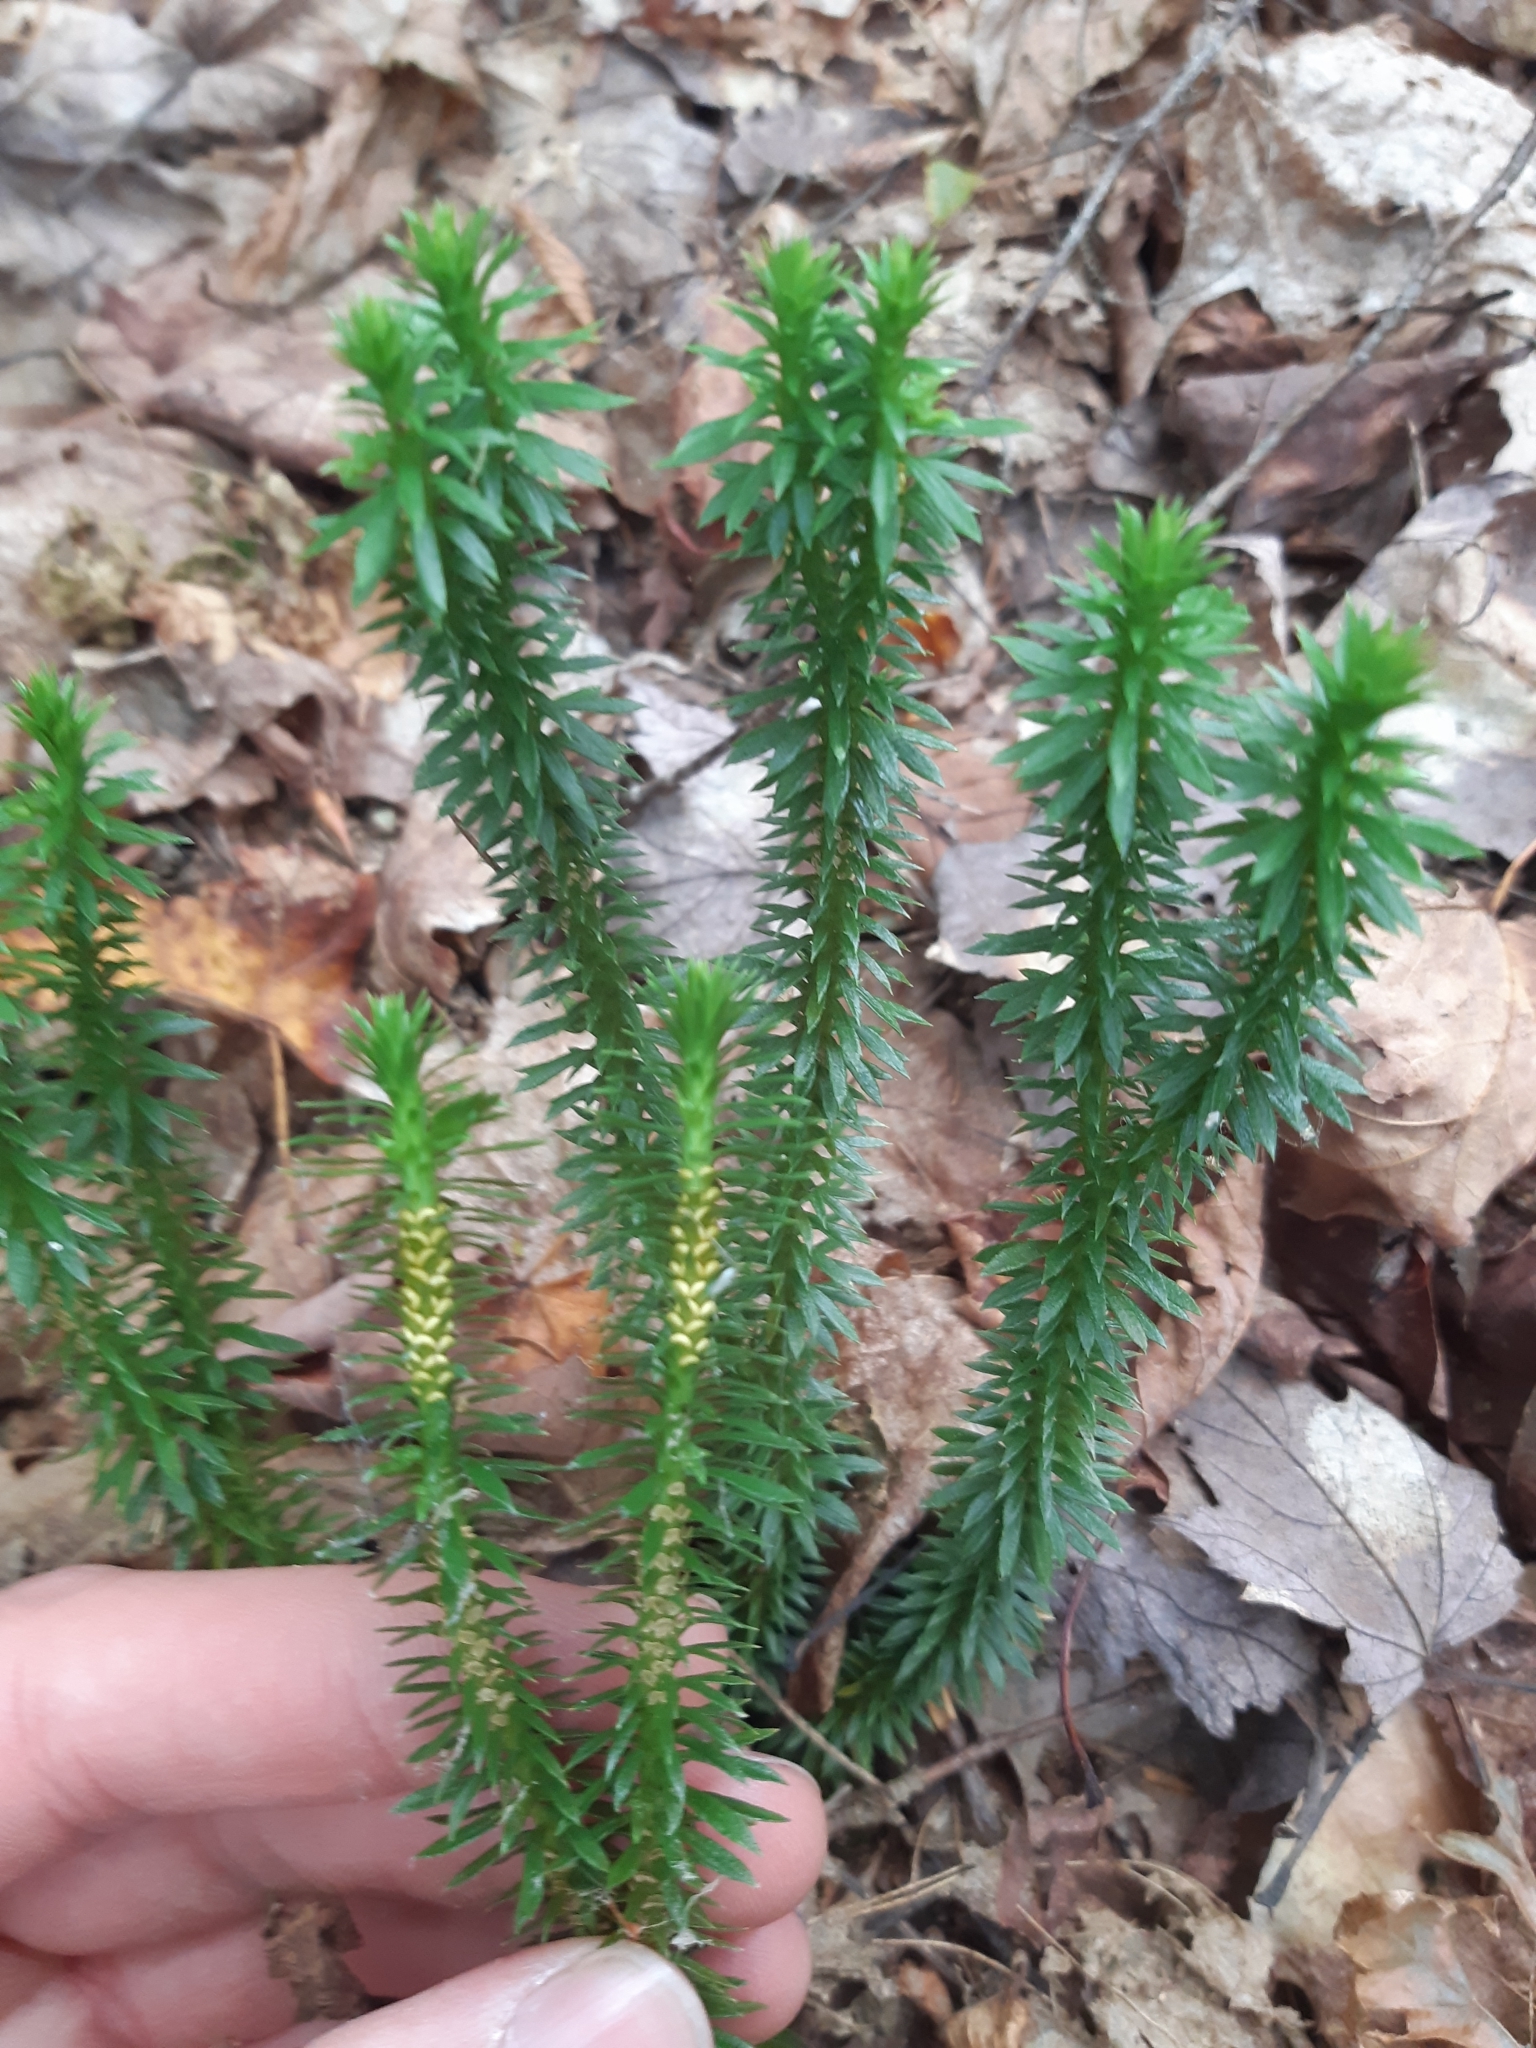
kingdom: Plantae
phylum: Tracheophyta
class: Lycopodiopsida
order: Lycopodiales
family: Lycopodiaceae
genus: Huperzia
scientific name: Huperzia lucidula
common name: Shining clubmoss
